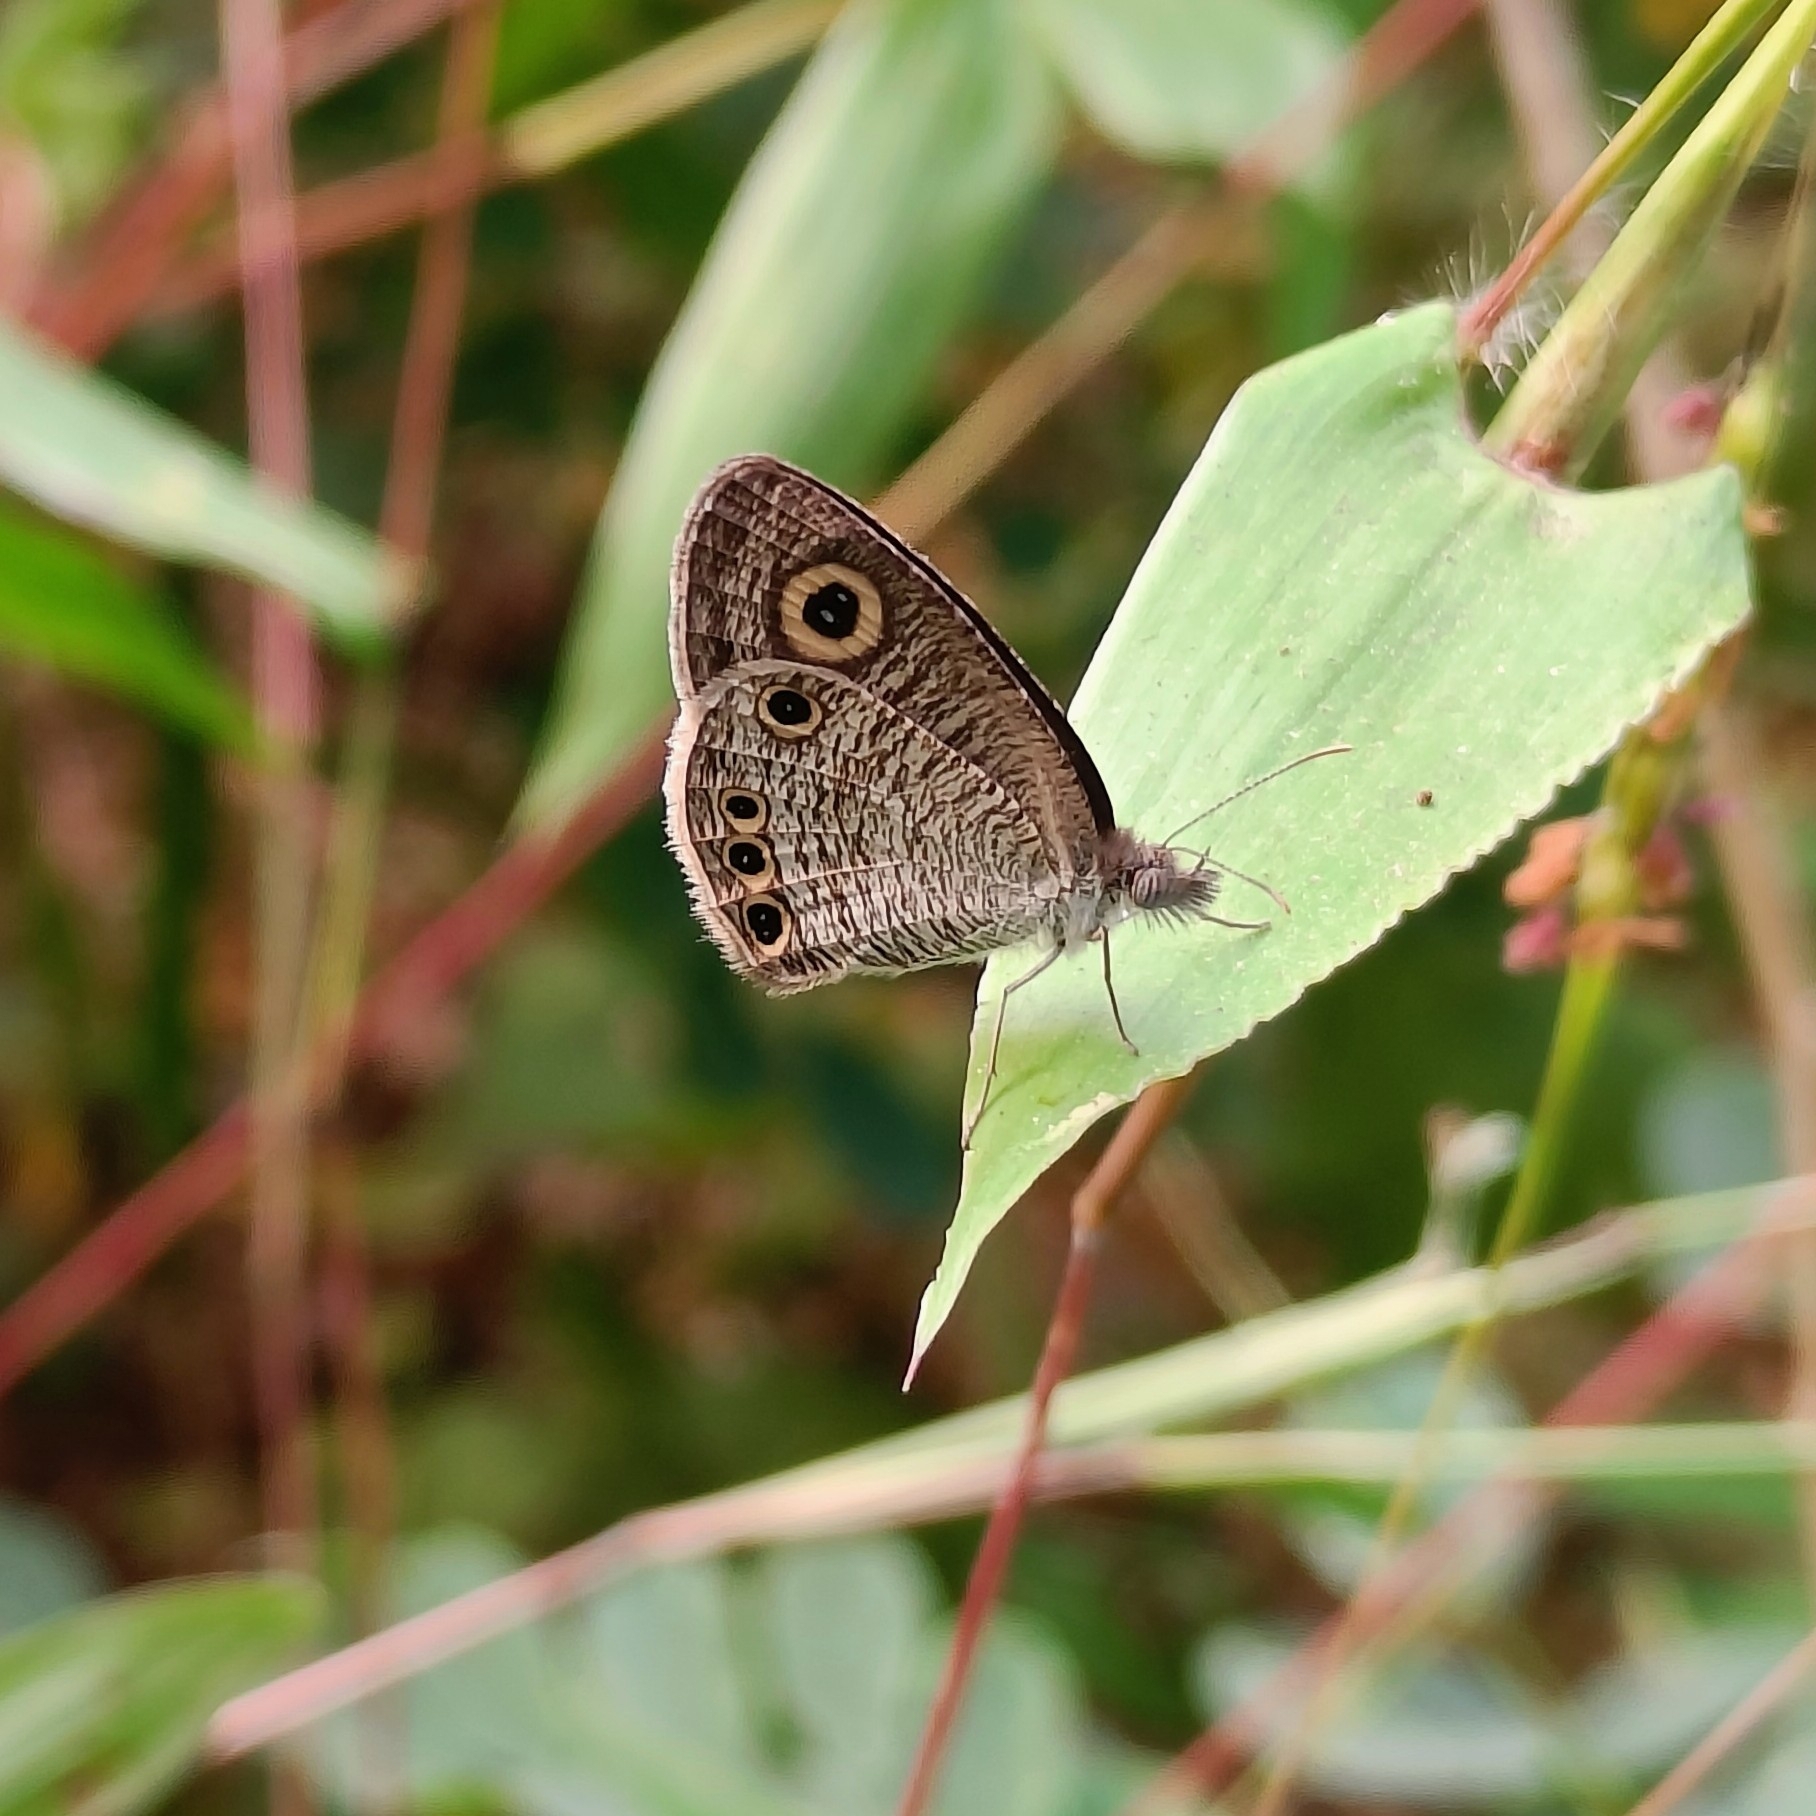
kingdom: Animalia
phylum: Arthropoda
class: Insecta
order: Lepidoptera
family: Nymphalidae
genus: Ypthima
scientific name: Ypthima huebneri
